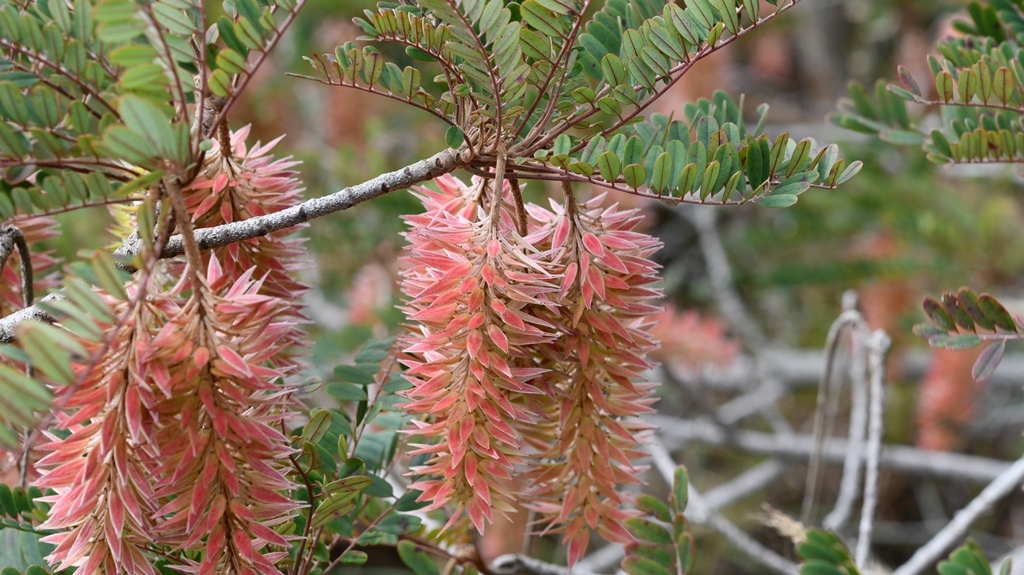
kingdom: Plantae
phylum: Tracheophyta
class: Magnoliopsida
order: Picramniales
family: Picramniaceae
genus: Alvaradoa
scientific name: Alvaradoa amorphoides
